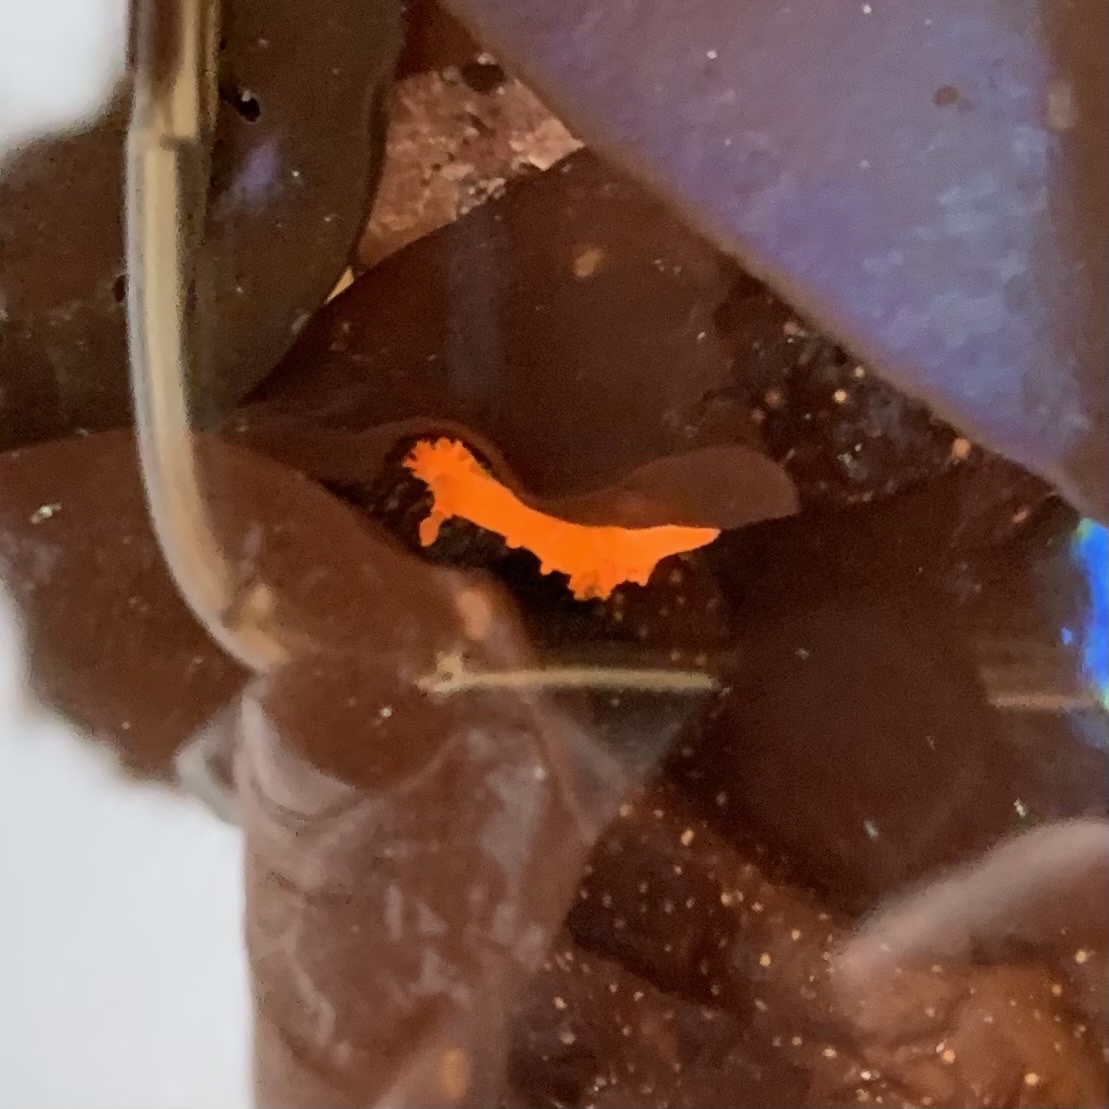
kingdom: Animalia
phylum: Mollusca
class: Gastropoda
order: Nudibranchia
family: Polyceridae
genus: Triopha
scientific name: Triopha maculata
